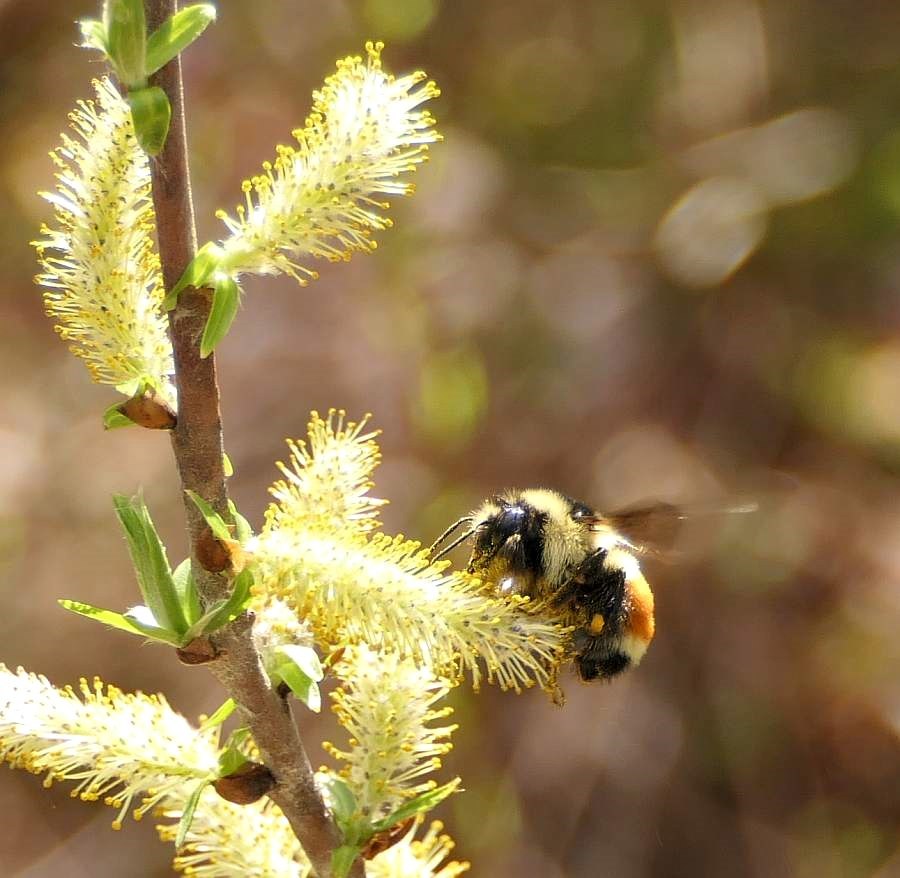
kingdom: Animalia
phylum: Arthropoda
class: Insecta
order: Hymenoptera
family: Apidae
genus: Bombus
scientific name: Bombus ternarius
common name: Tri-colored bumble bee
